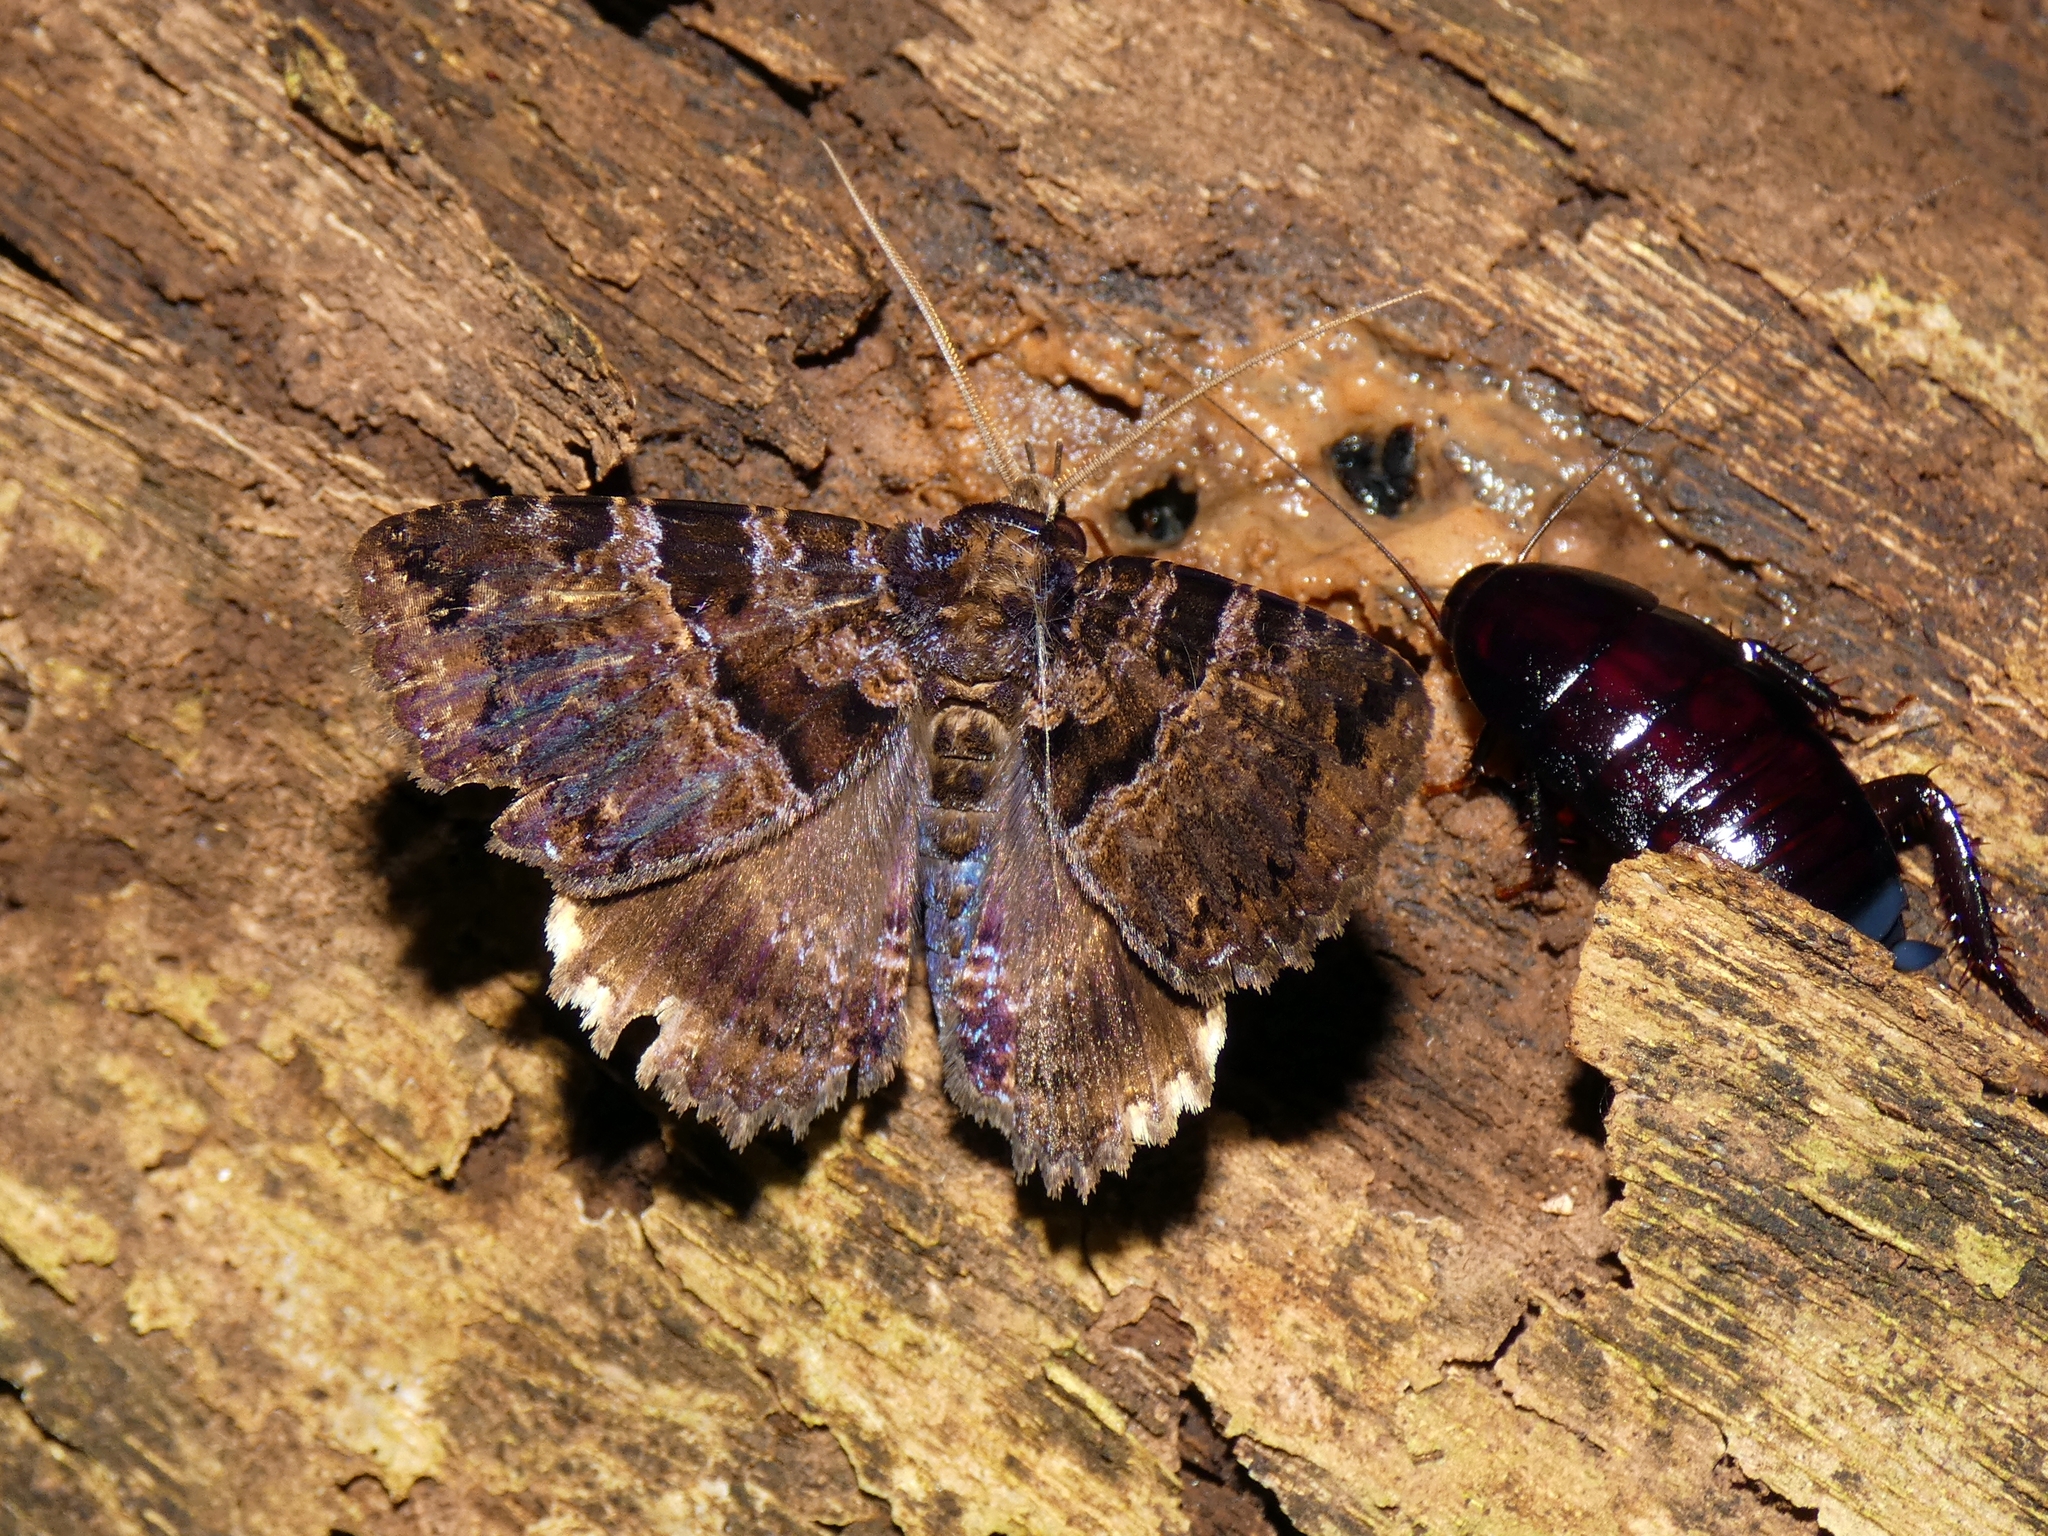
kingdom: Animalia
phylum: Arthropoda
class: Insecta
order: Lepidoptera
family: Erebidae
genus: Sypna
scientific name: Sypna buruensis
